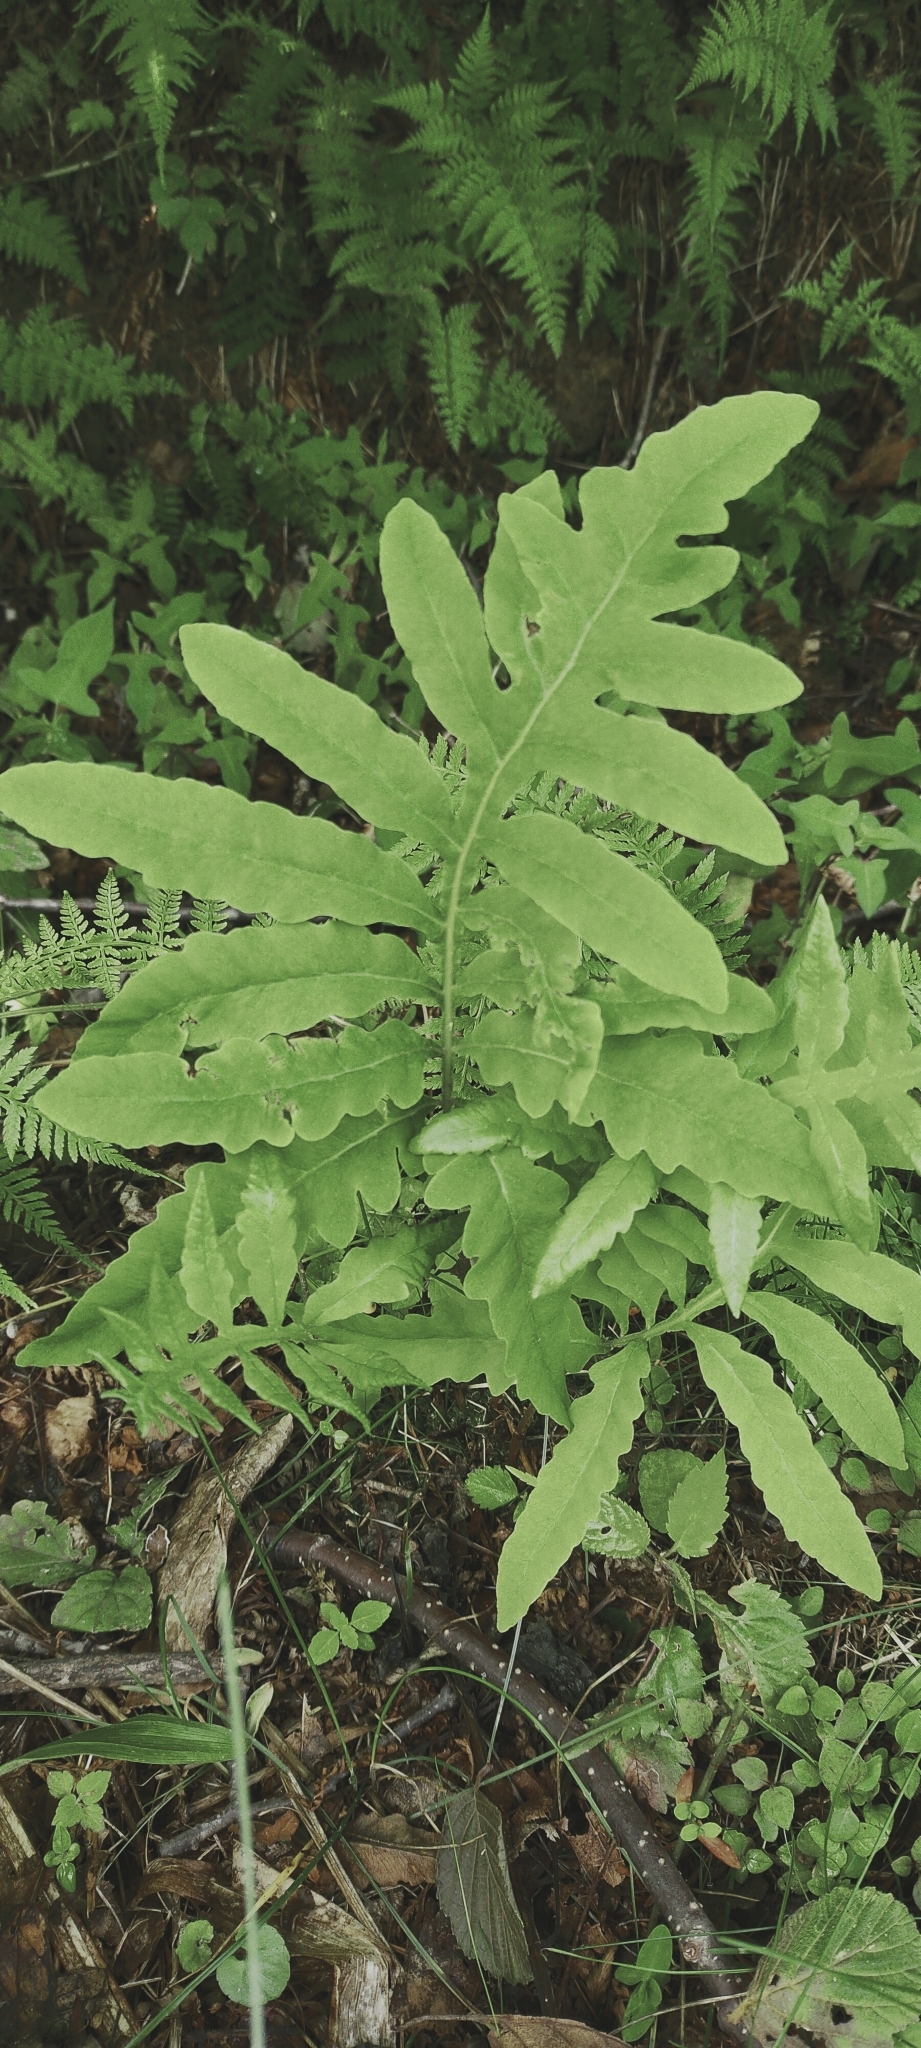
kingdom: Plantae
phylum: Tracheophyta
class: Polypodiopsida
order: Polypodiales
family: Onocleaceae
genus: Onoclea
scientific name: Onoclea sensibilis
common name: Sensitive fern
